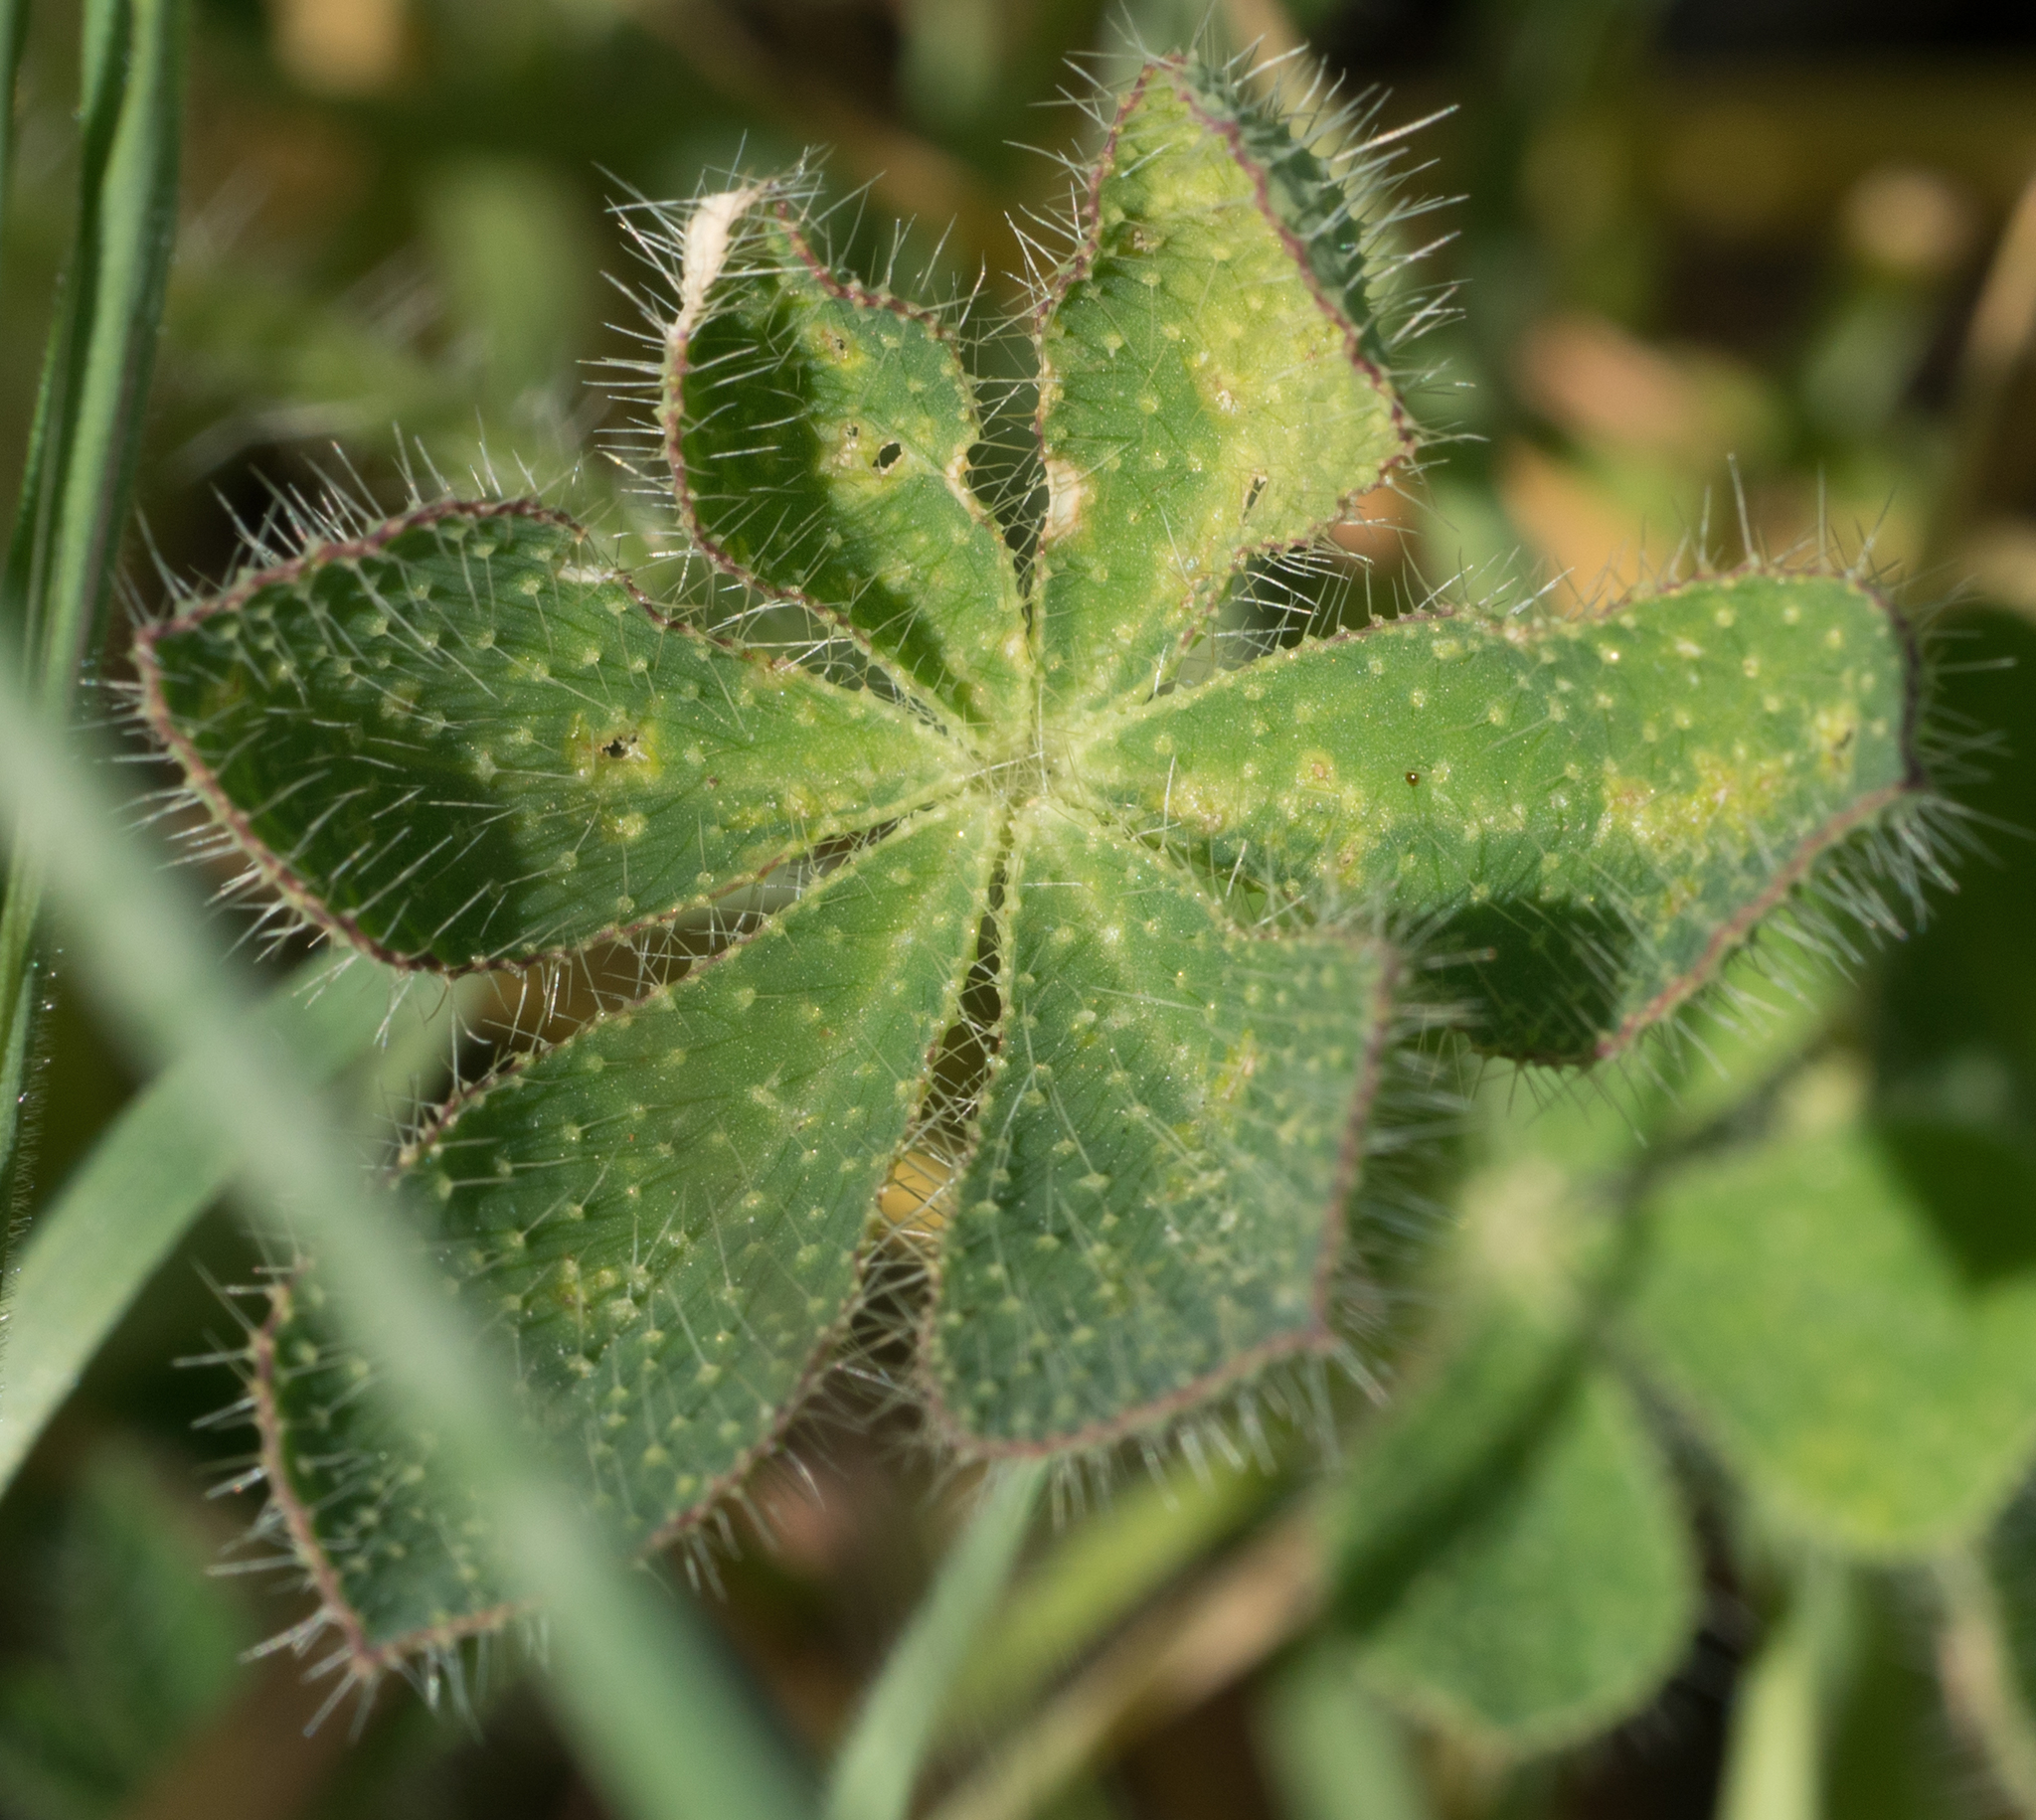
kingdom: Plantae
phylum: Tracheophyta
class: Magnoliopsida
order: Fabales
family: Fabaceae
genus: Lupinus
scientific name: Lupinus hirsutissimus
